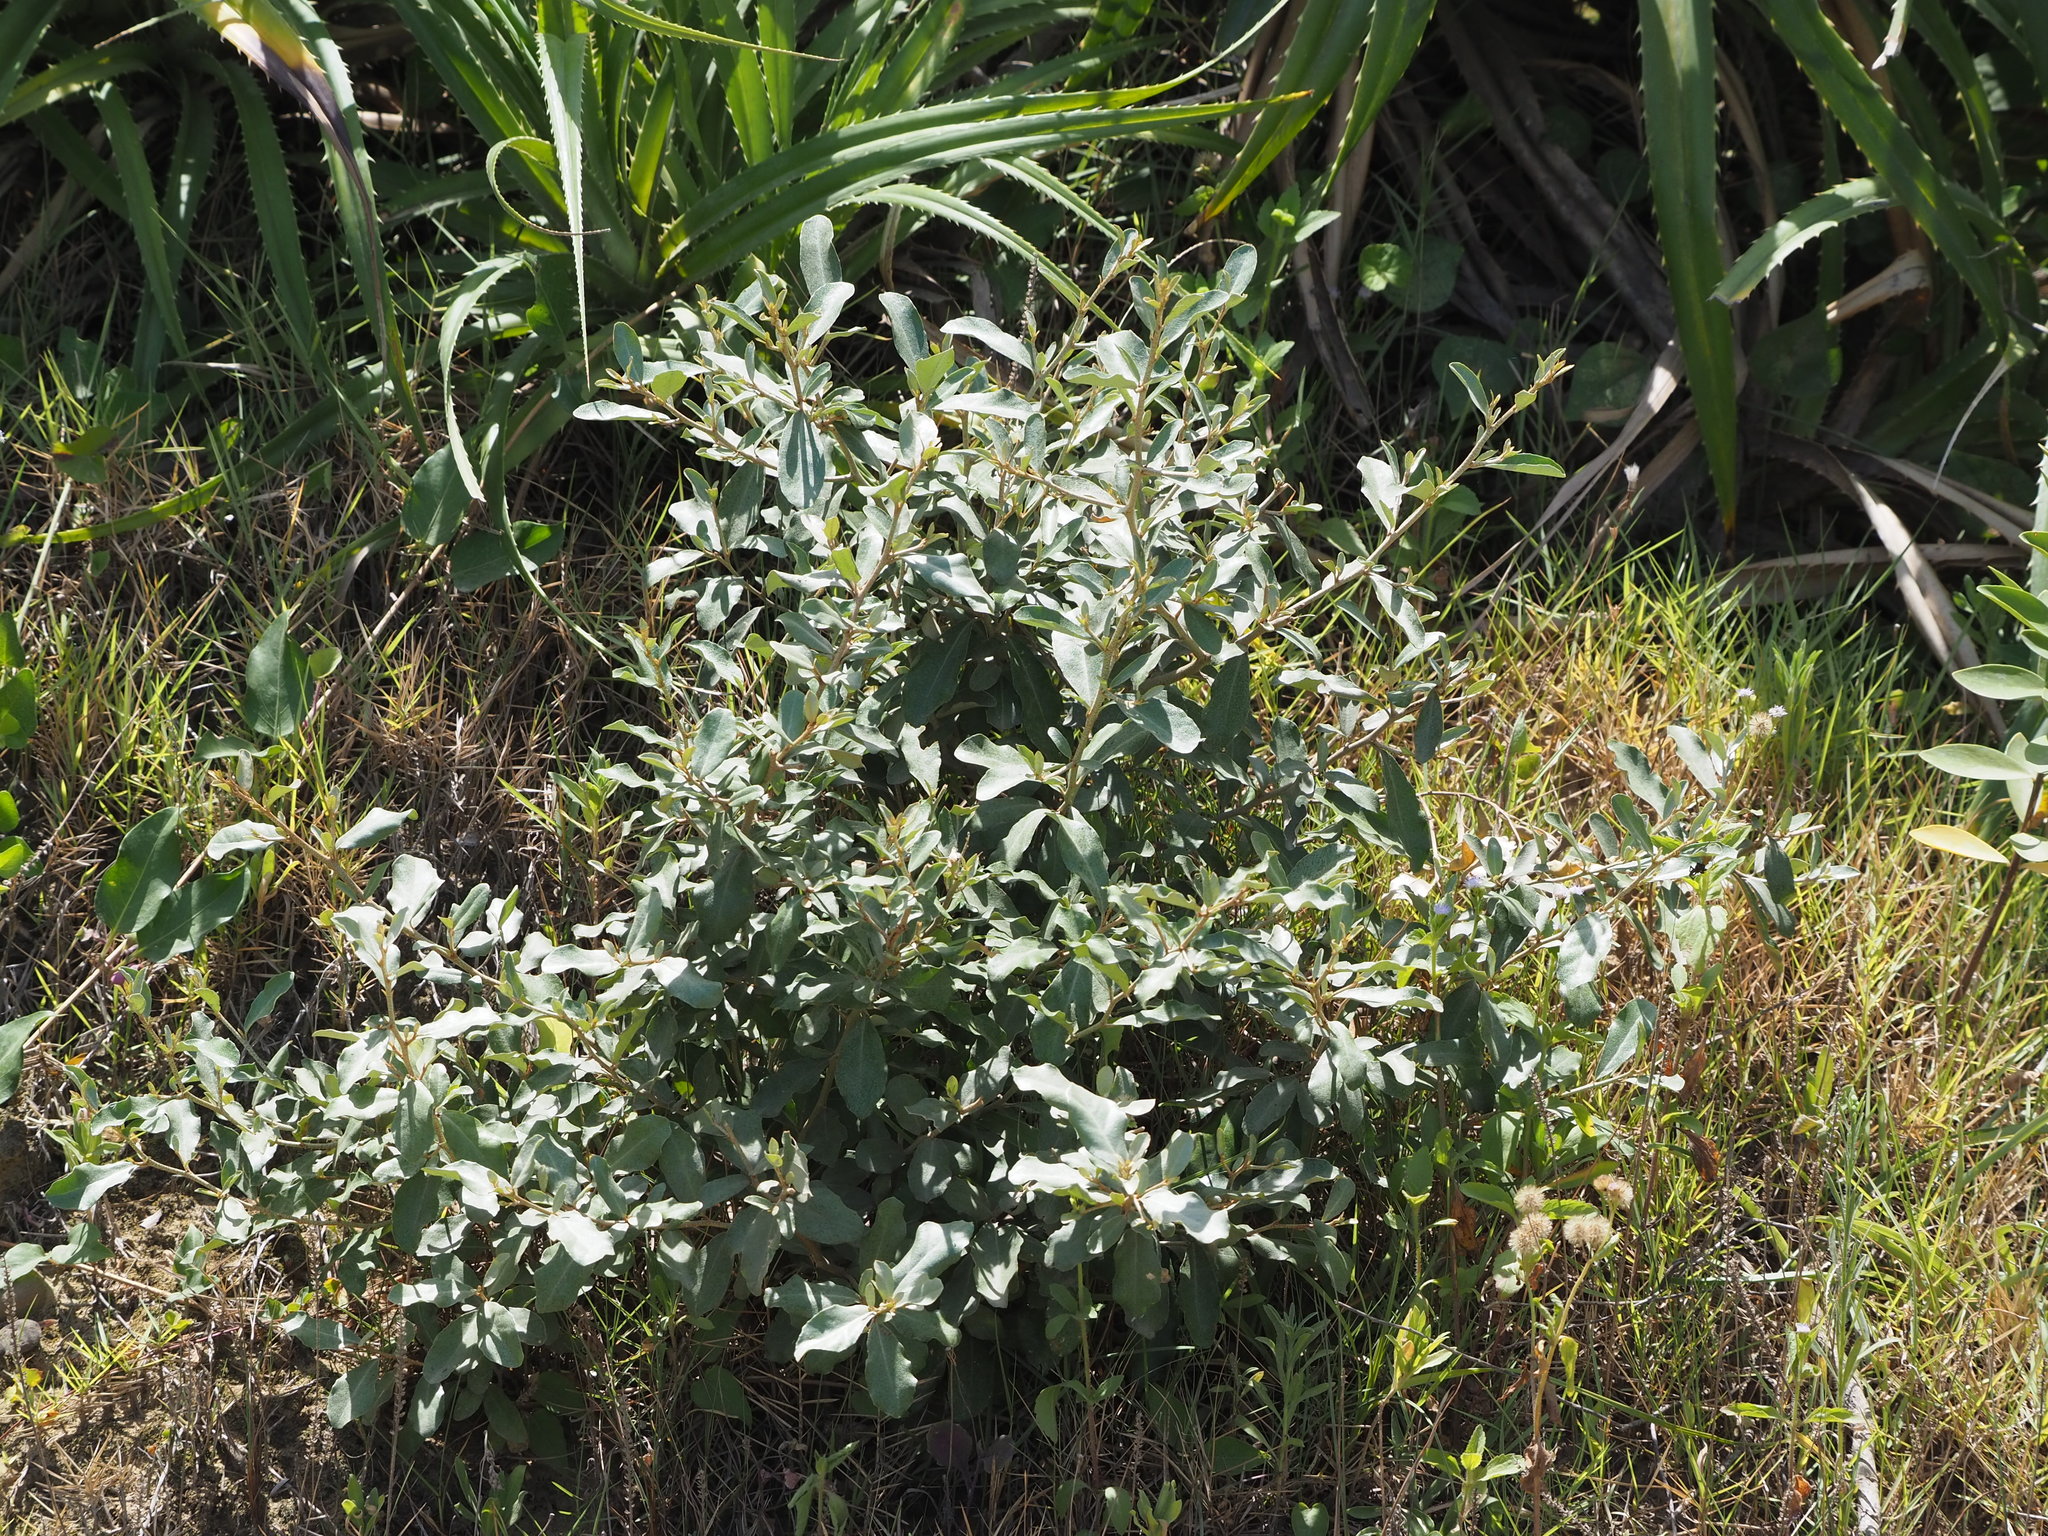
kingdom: Plantae
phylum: Tracheophyta
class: Magnoliopsida
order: Rosales
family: Elaeagnaceae
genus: Elaeagnus
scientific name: Elaeagnus oldhamii
